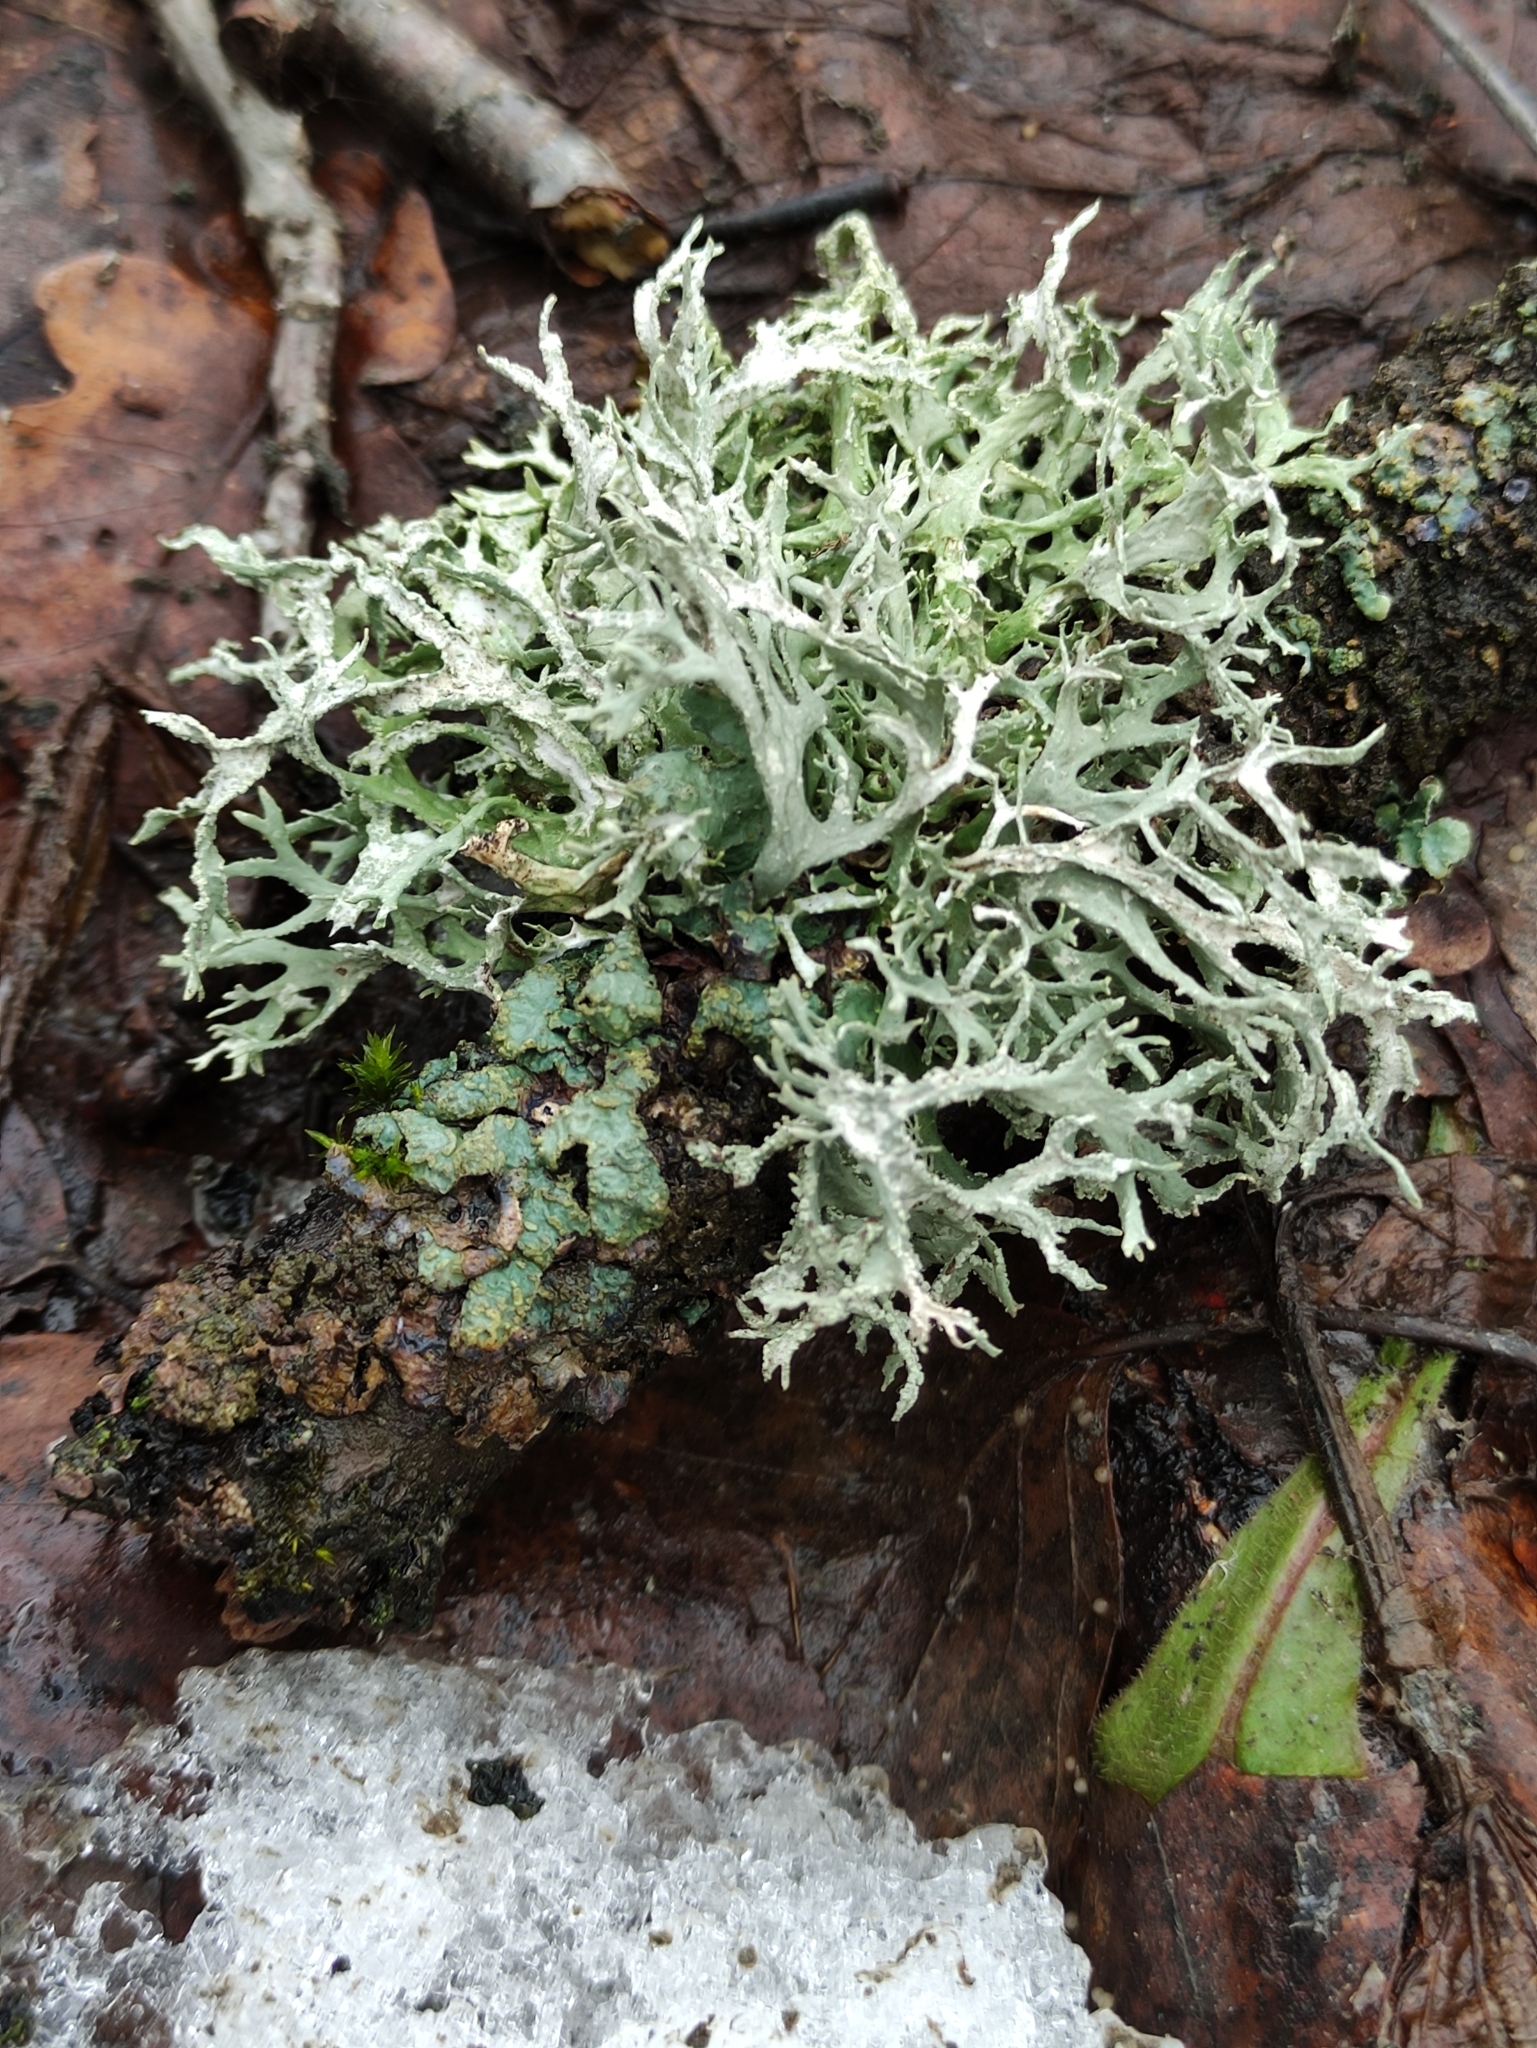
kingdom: Fungi
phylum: Ascomycota
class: Lecanoromycetes
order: Lecanorales
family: Parmeliaceae
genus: Evernia
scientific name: Evernia prunastri
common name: Oak moss
